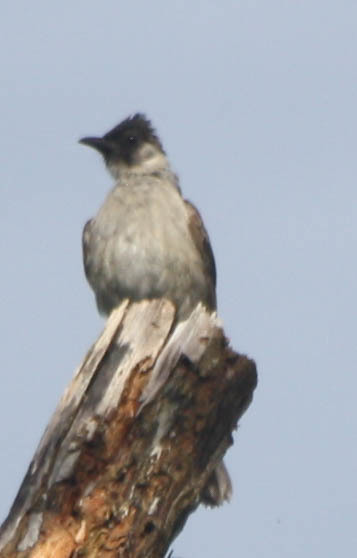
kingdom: Animalia
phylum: Chordata
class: Aves
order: Passeriformes
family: Pycnonotidae
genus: Pycnonotus
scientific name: Pycnonotus aurigaster
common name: Sooty-headed bulbul
